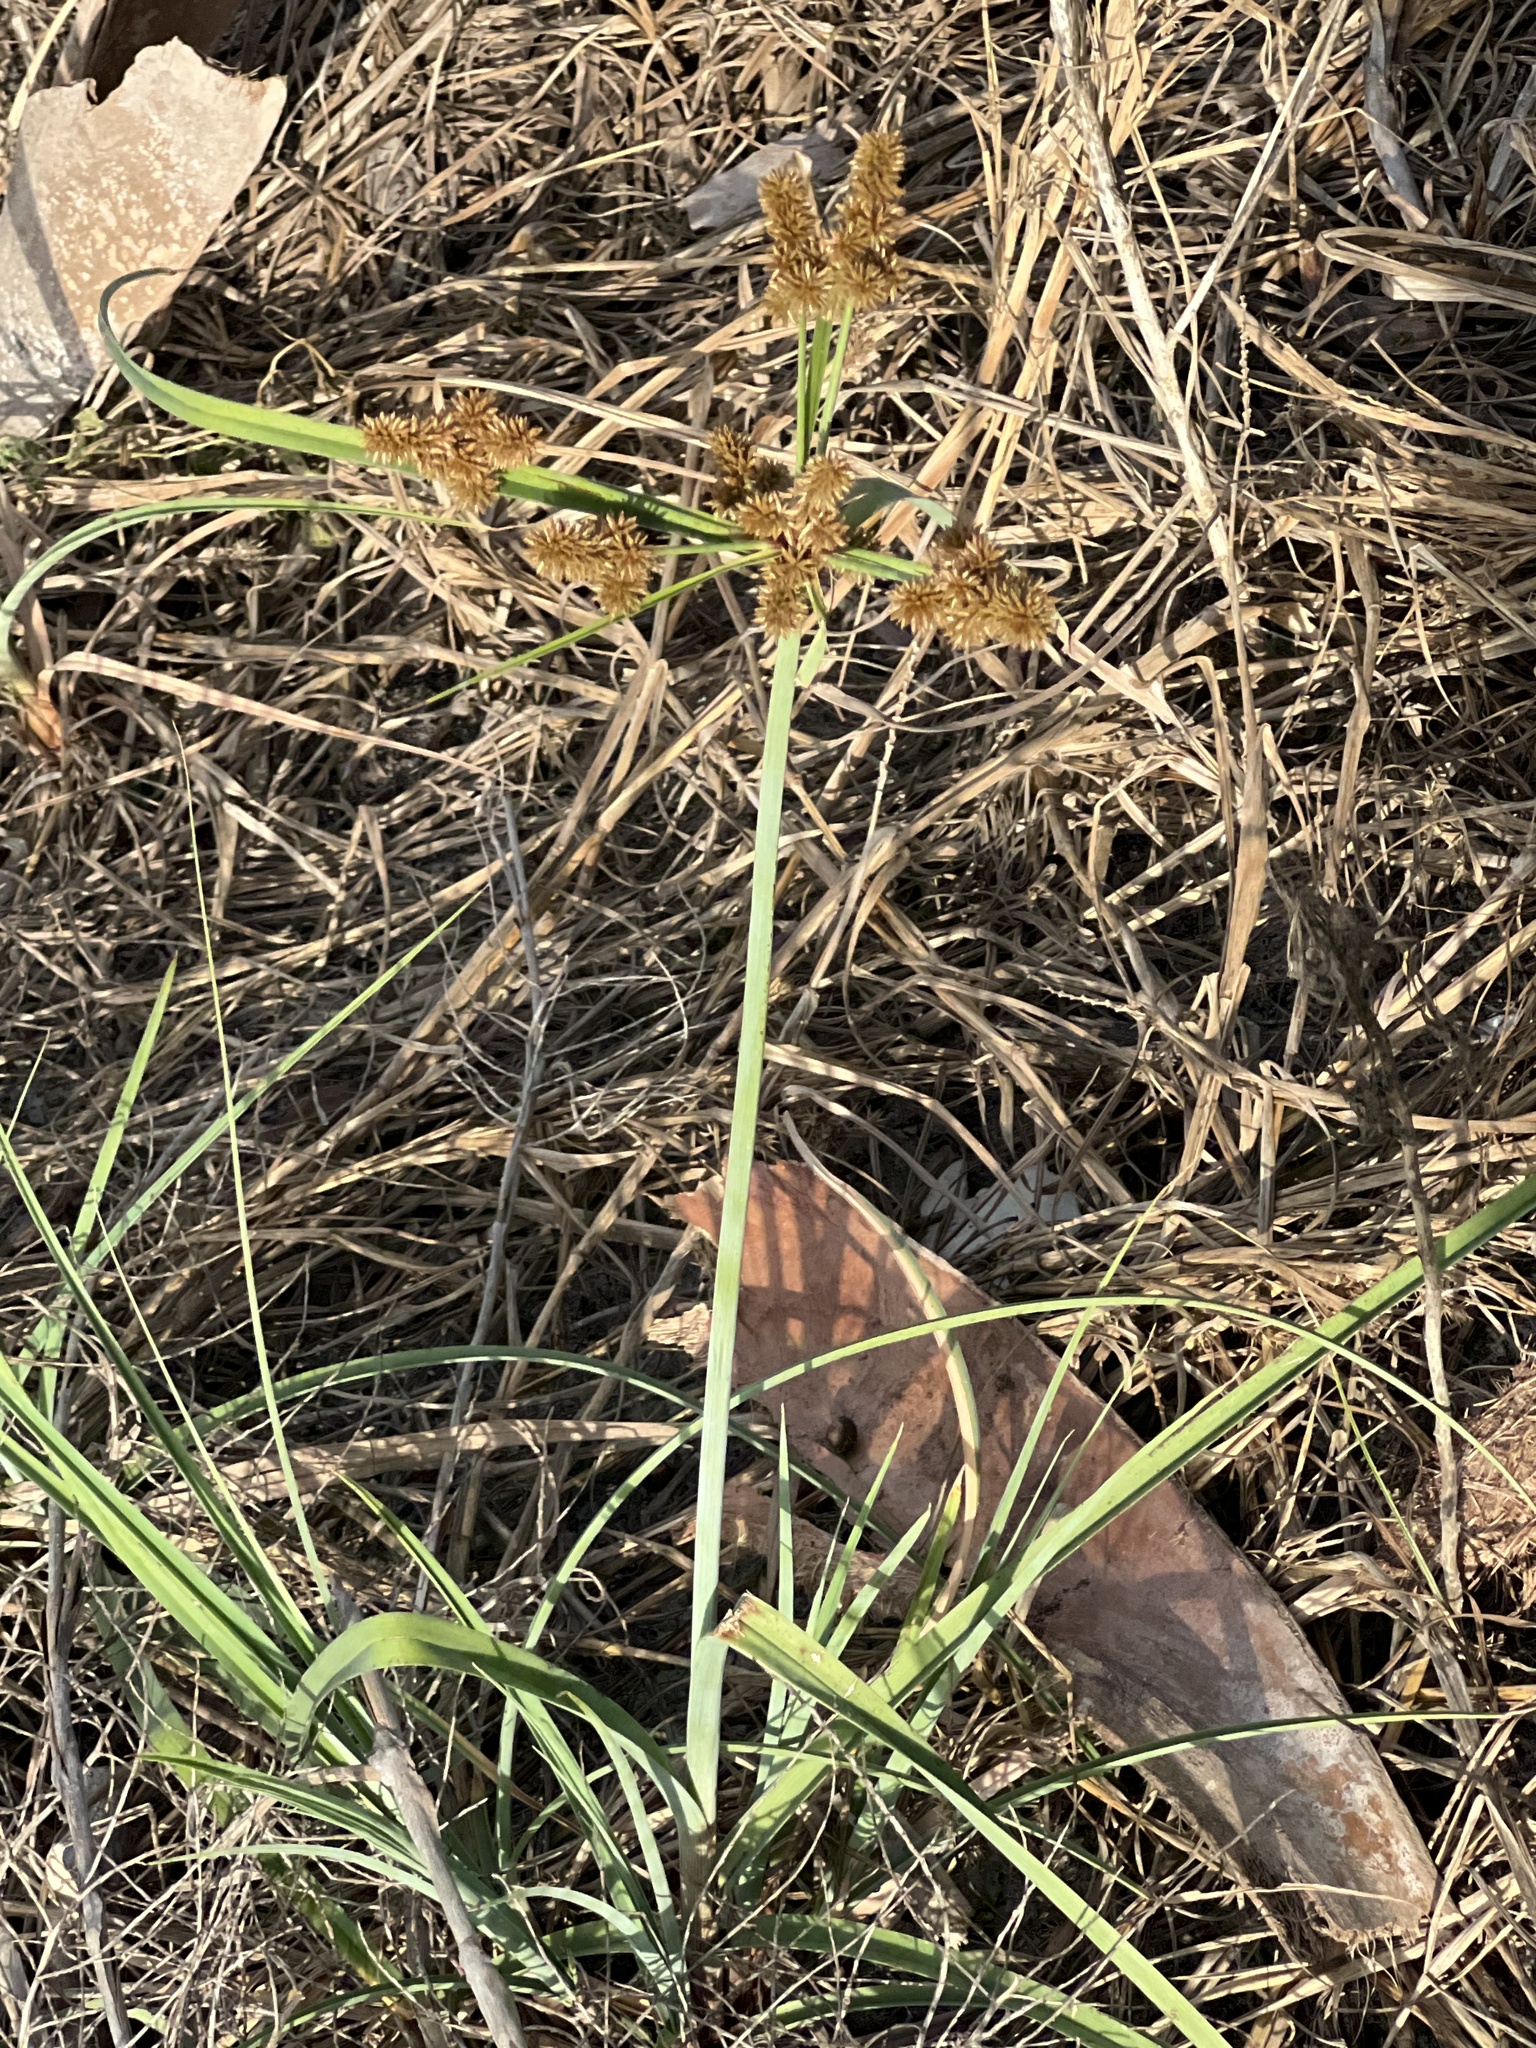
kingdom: Plantae
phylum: Tracheophyta
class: Liliopsida
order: Poales
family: Cyperaceae
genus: Cyperus
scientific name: Cyperus ligularis
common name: Swamp flat sedge
